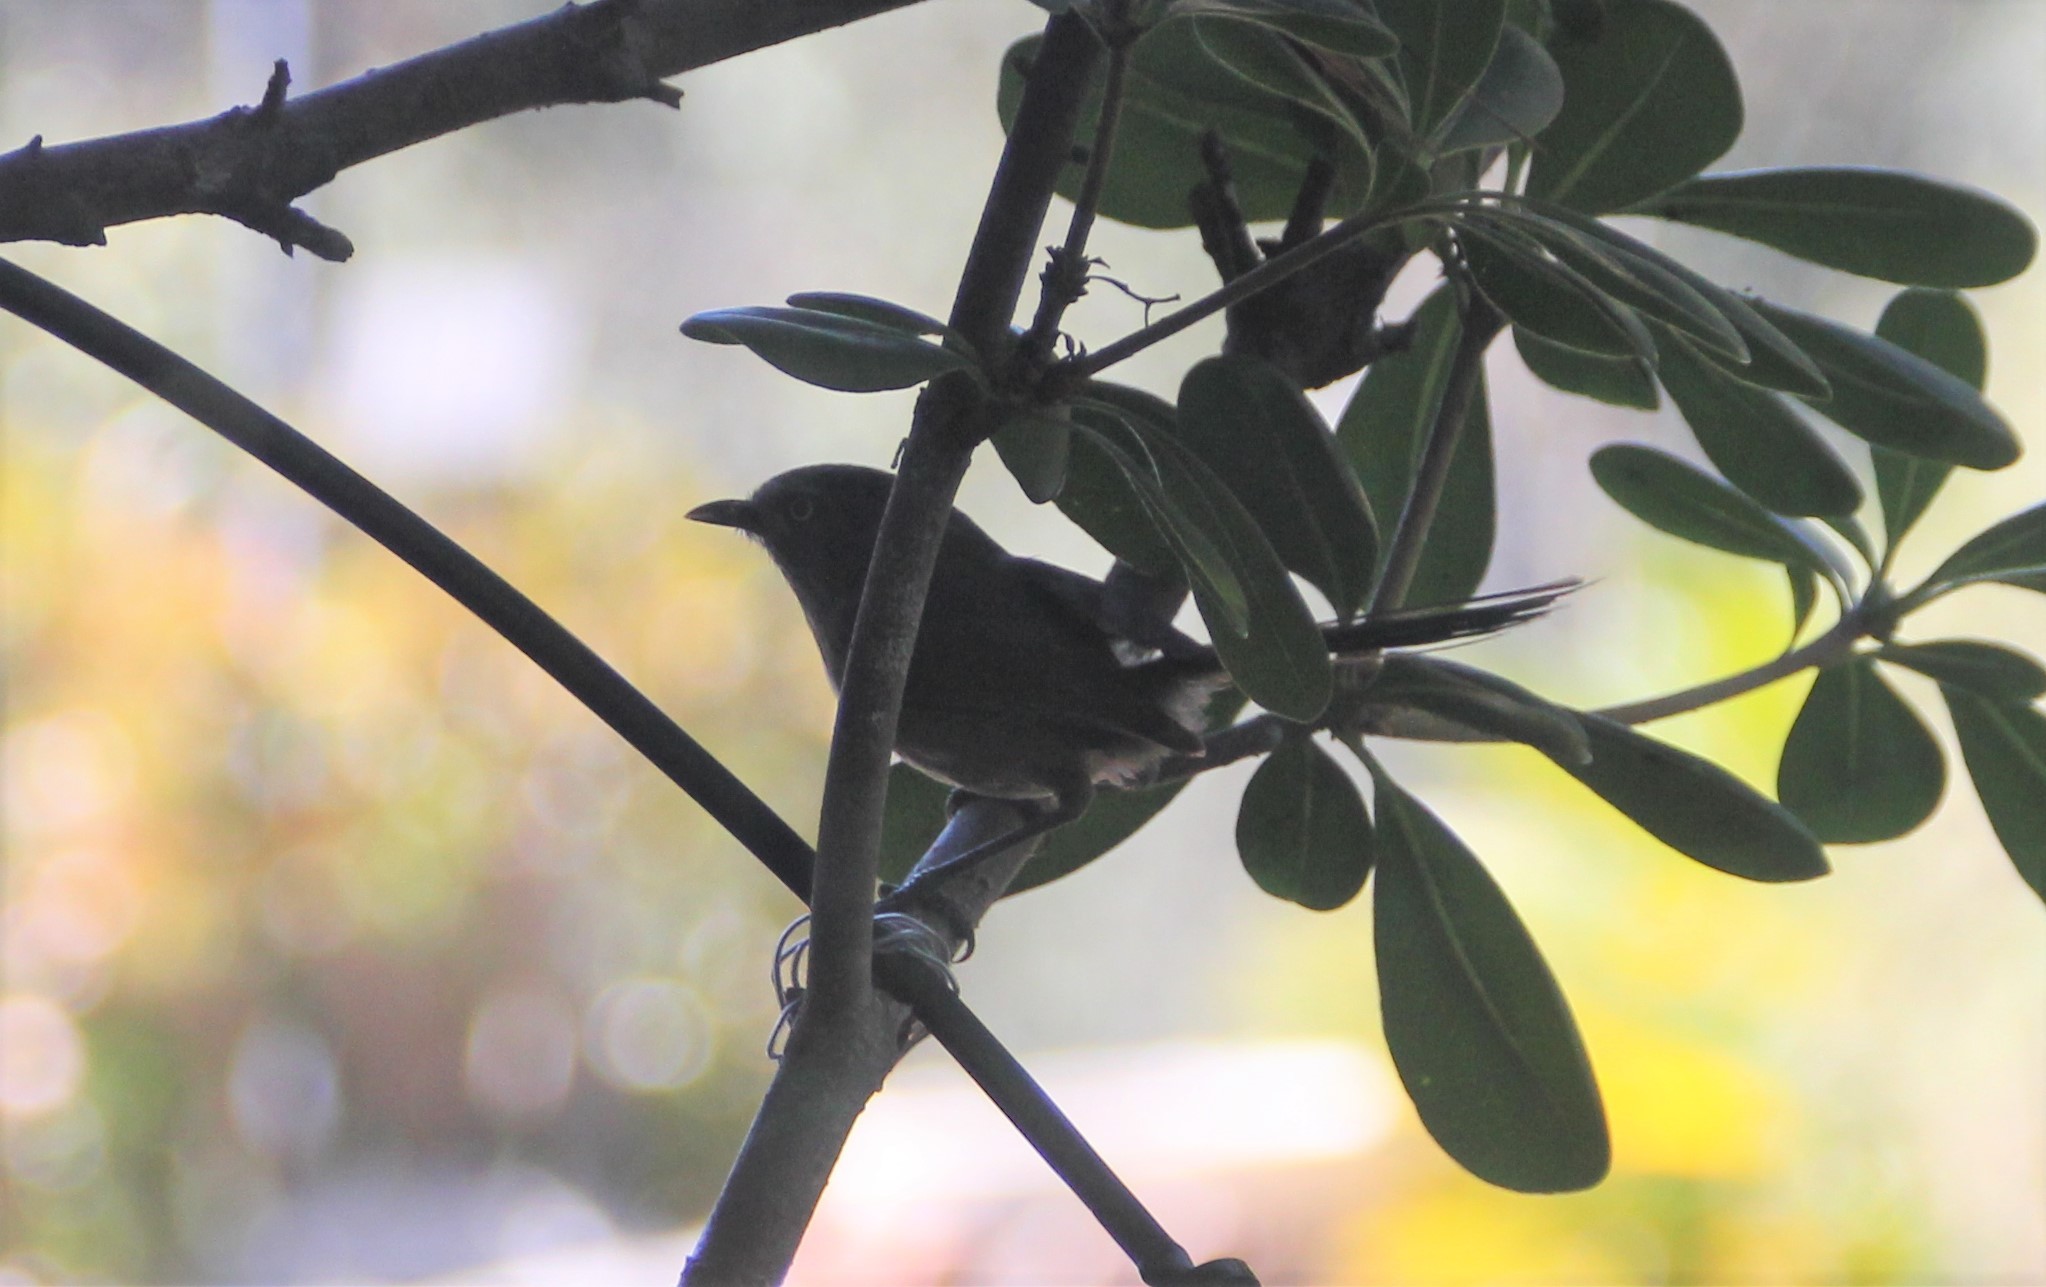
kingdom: Animalia
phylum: Chordata
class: Aves
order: Passeriformes
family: Sylviidae
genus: Chamaea
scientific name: Chamaea fasciata
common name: Wrentit
